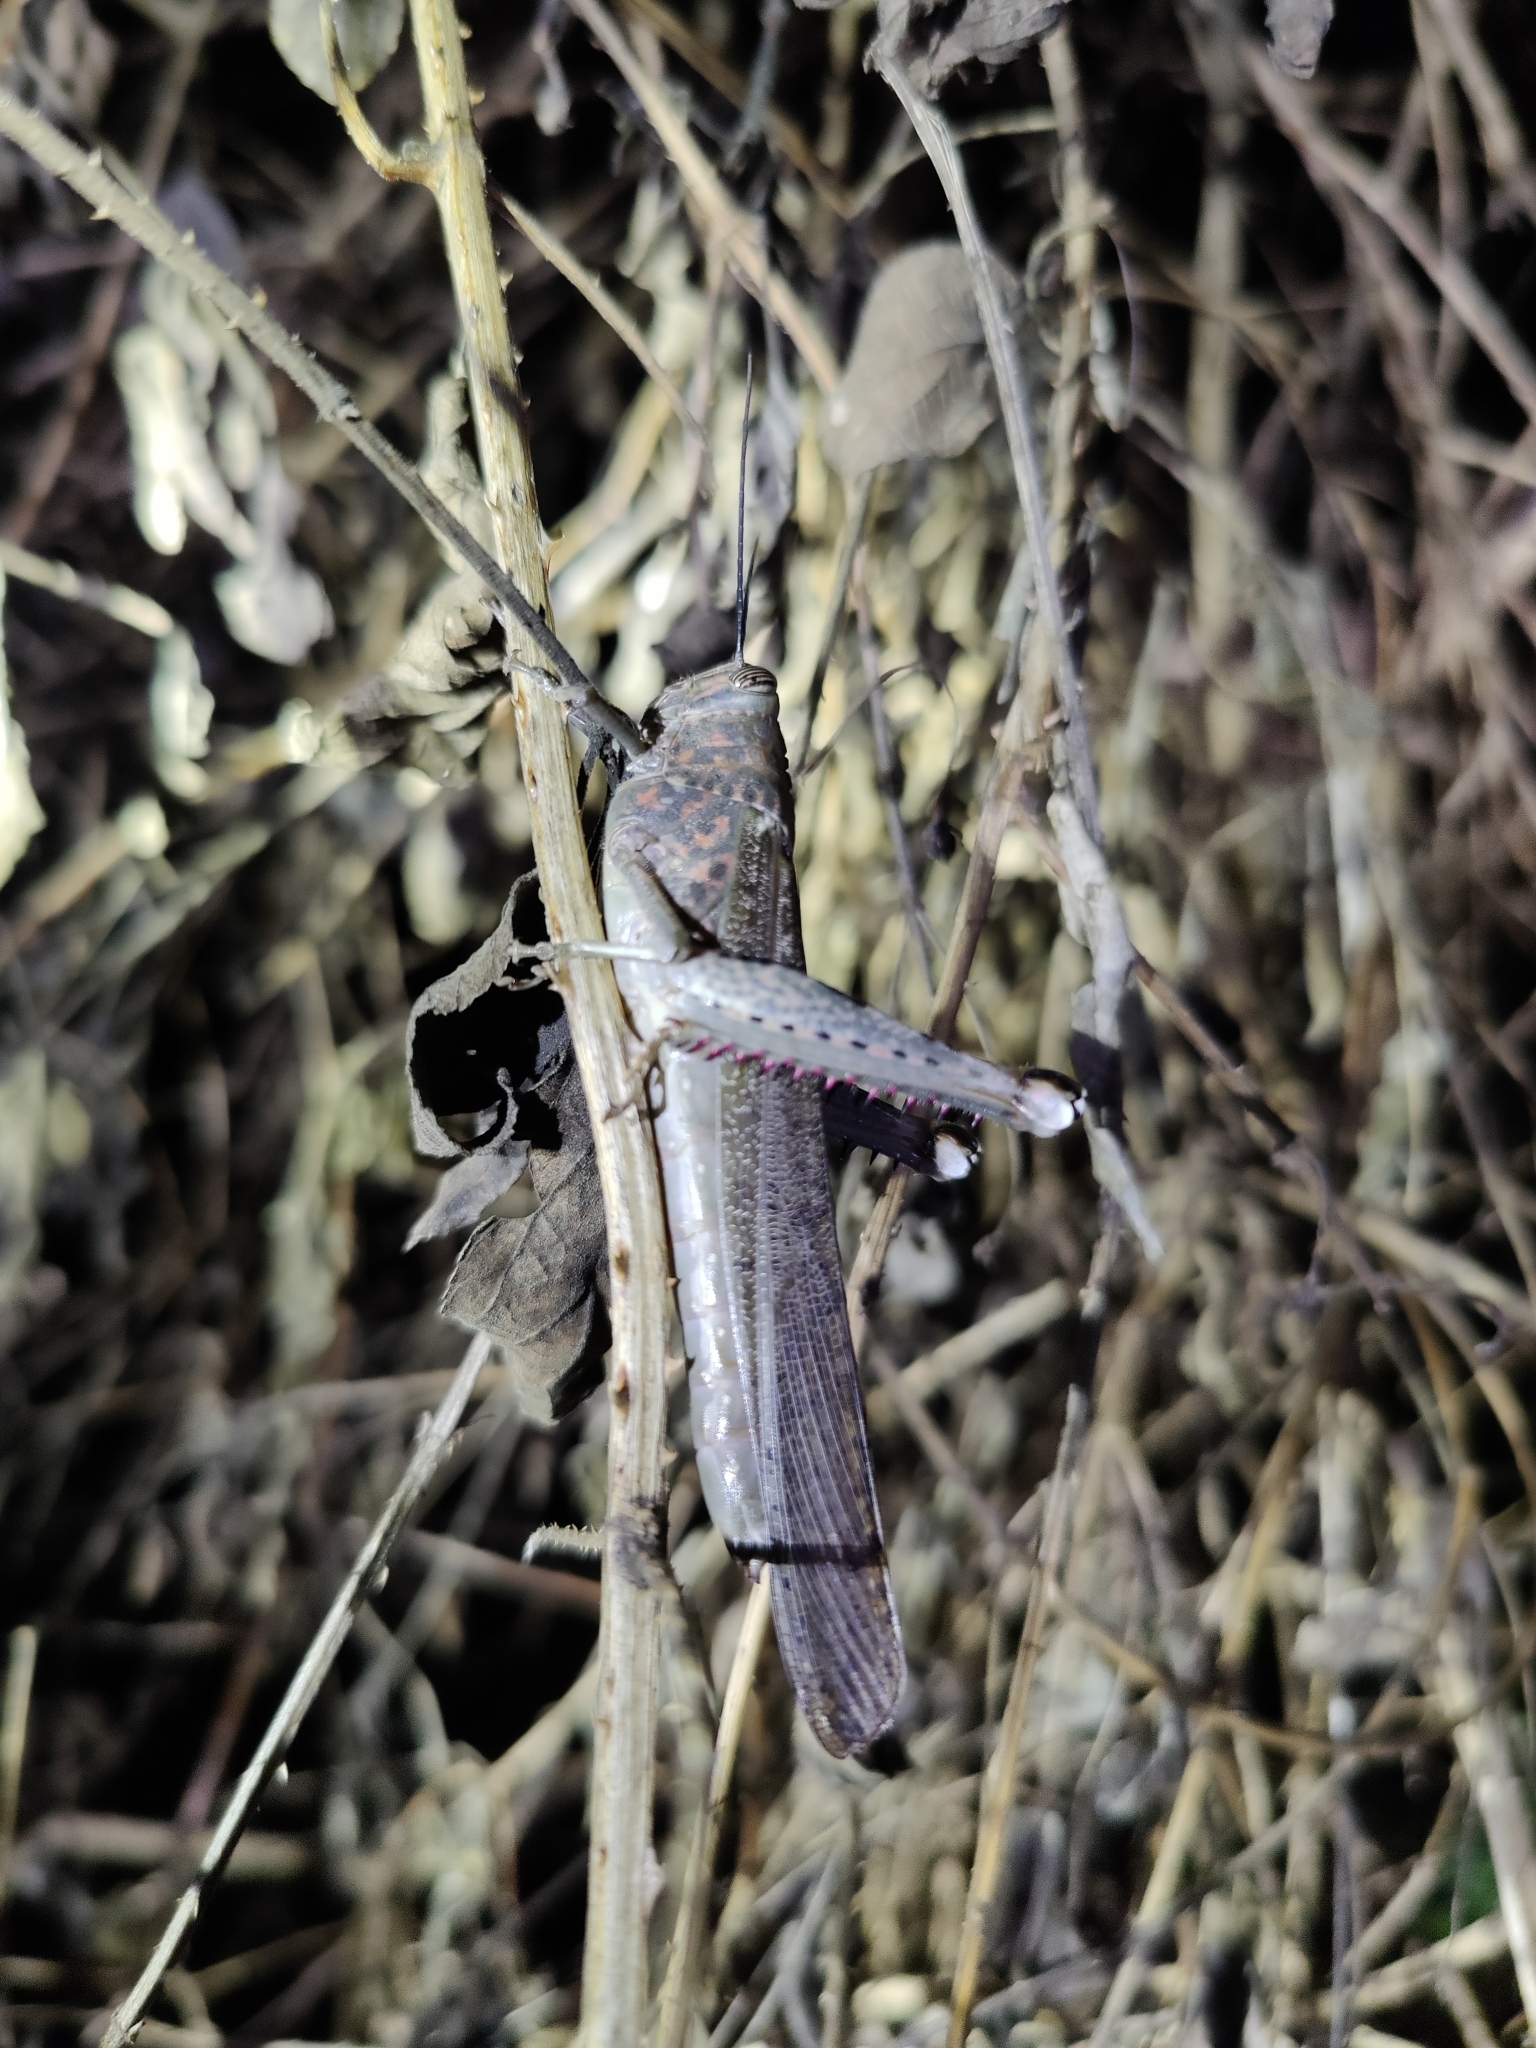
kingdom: Animalia
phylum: Arthropoda
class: Insecta
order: Orthoptera
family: Acrididae
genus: Anacridium
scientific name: Anacridium flavescens
